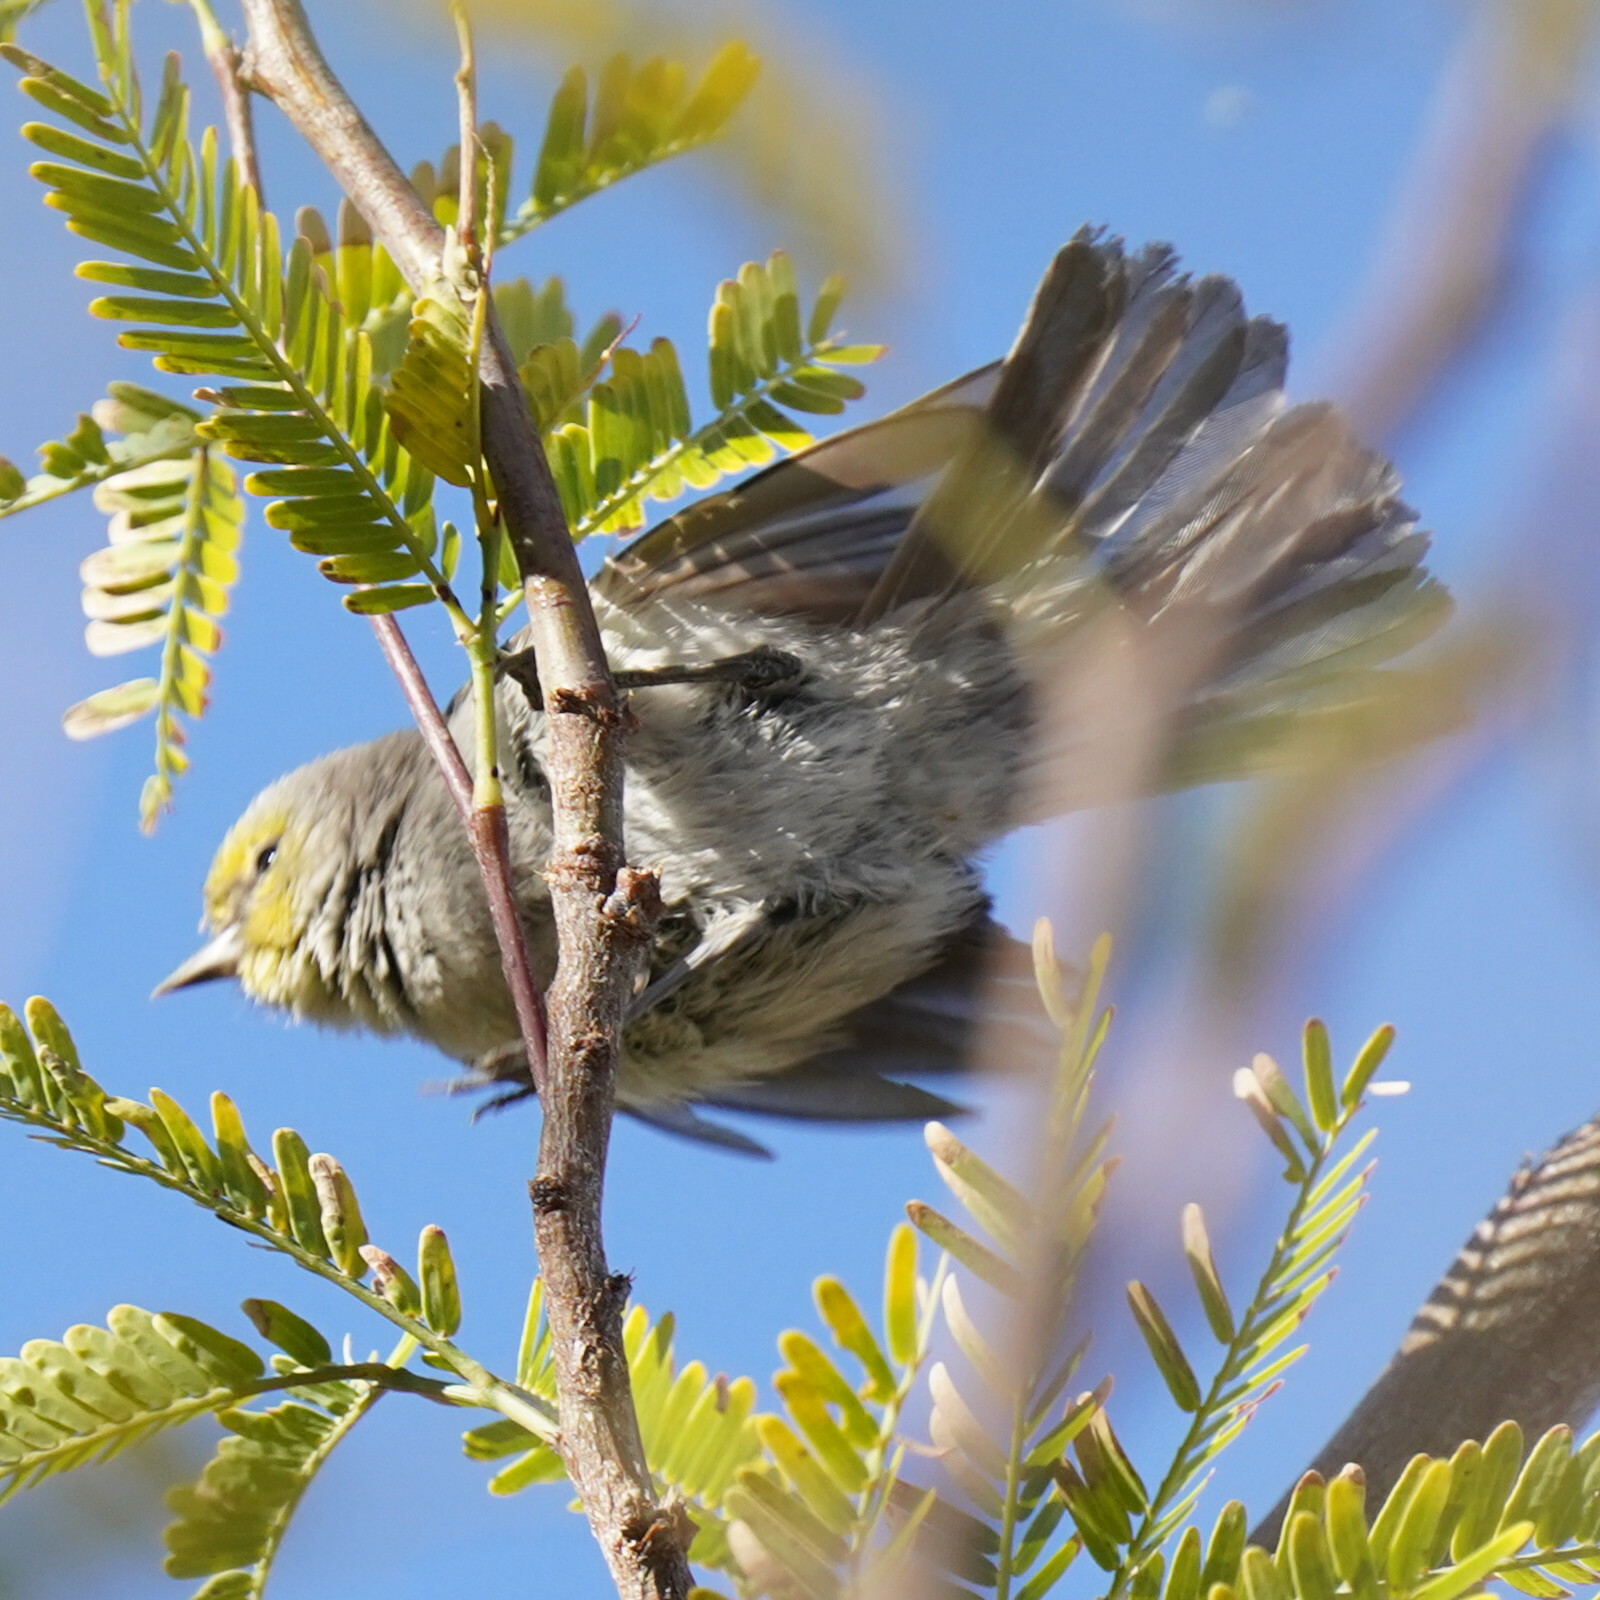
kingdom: Animalia
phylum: Chordata
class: Aves
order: Passeriformes
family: Remizidae
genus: Auriparus
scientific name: Auriparus flaviceps
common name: Verdin
